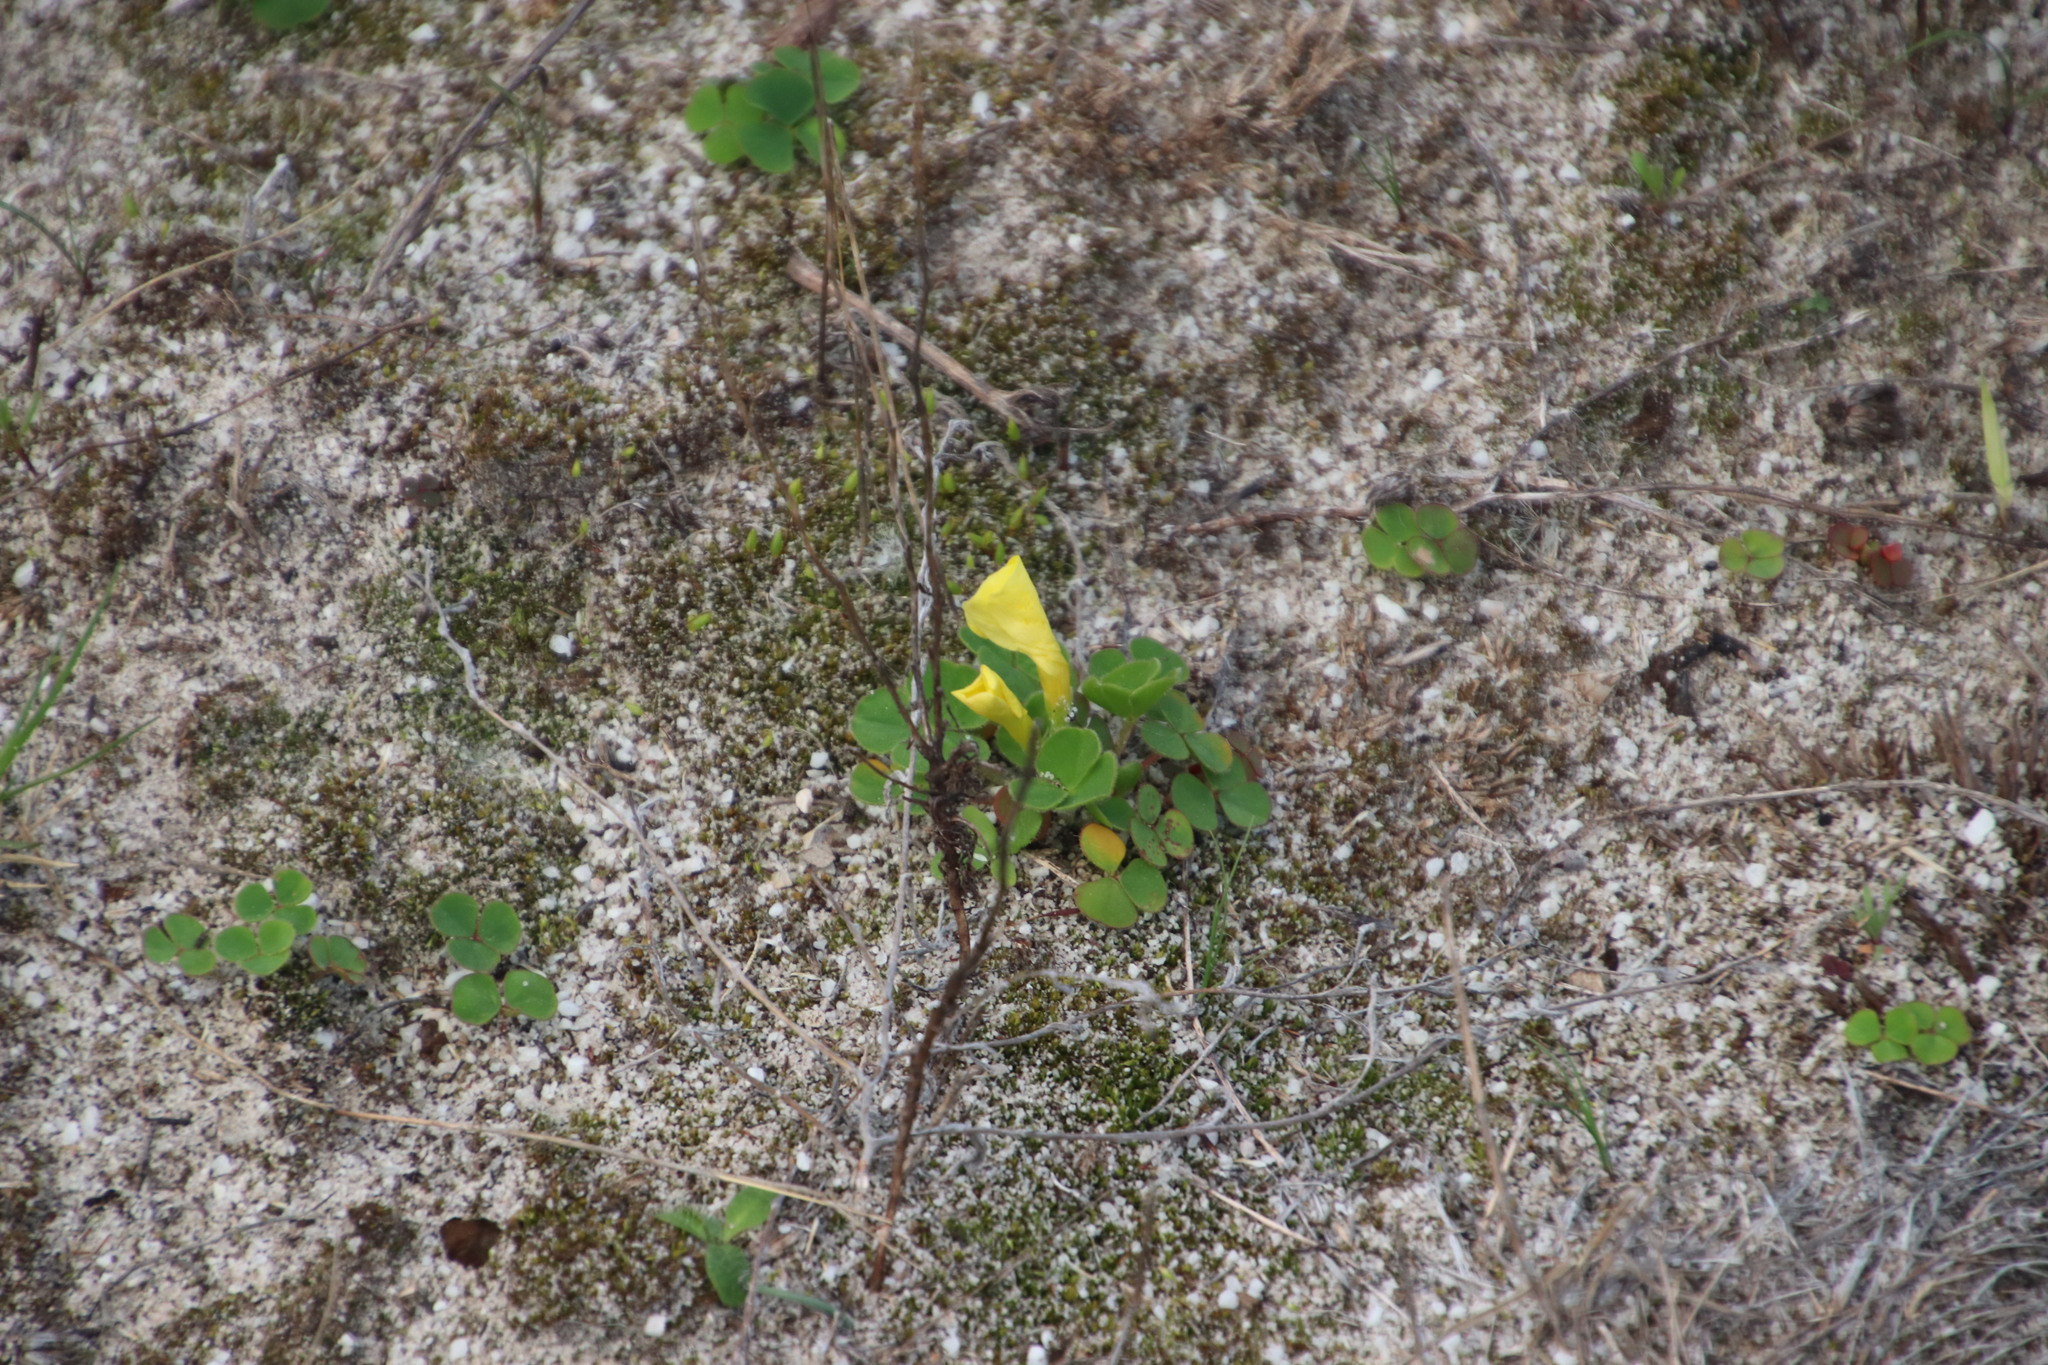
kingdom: Plantae
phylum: Tracheophyta
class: Magnoliopsida
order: Oxalidales
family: Oxalidaceae
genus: Oxalis
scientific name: Oxalis luteola
